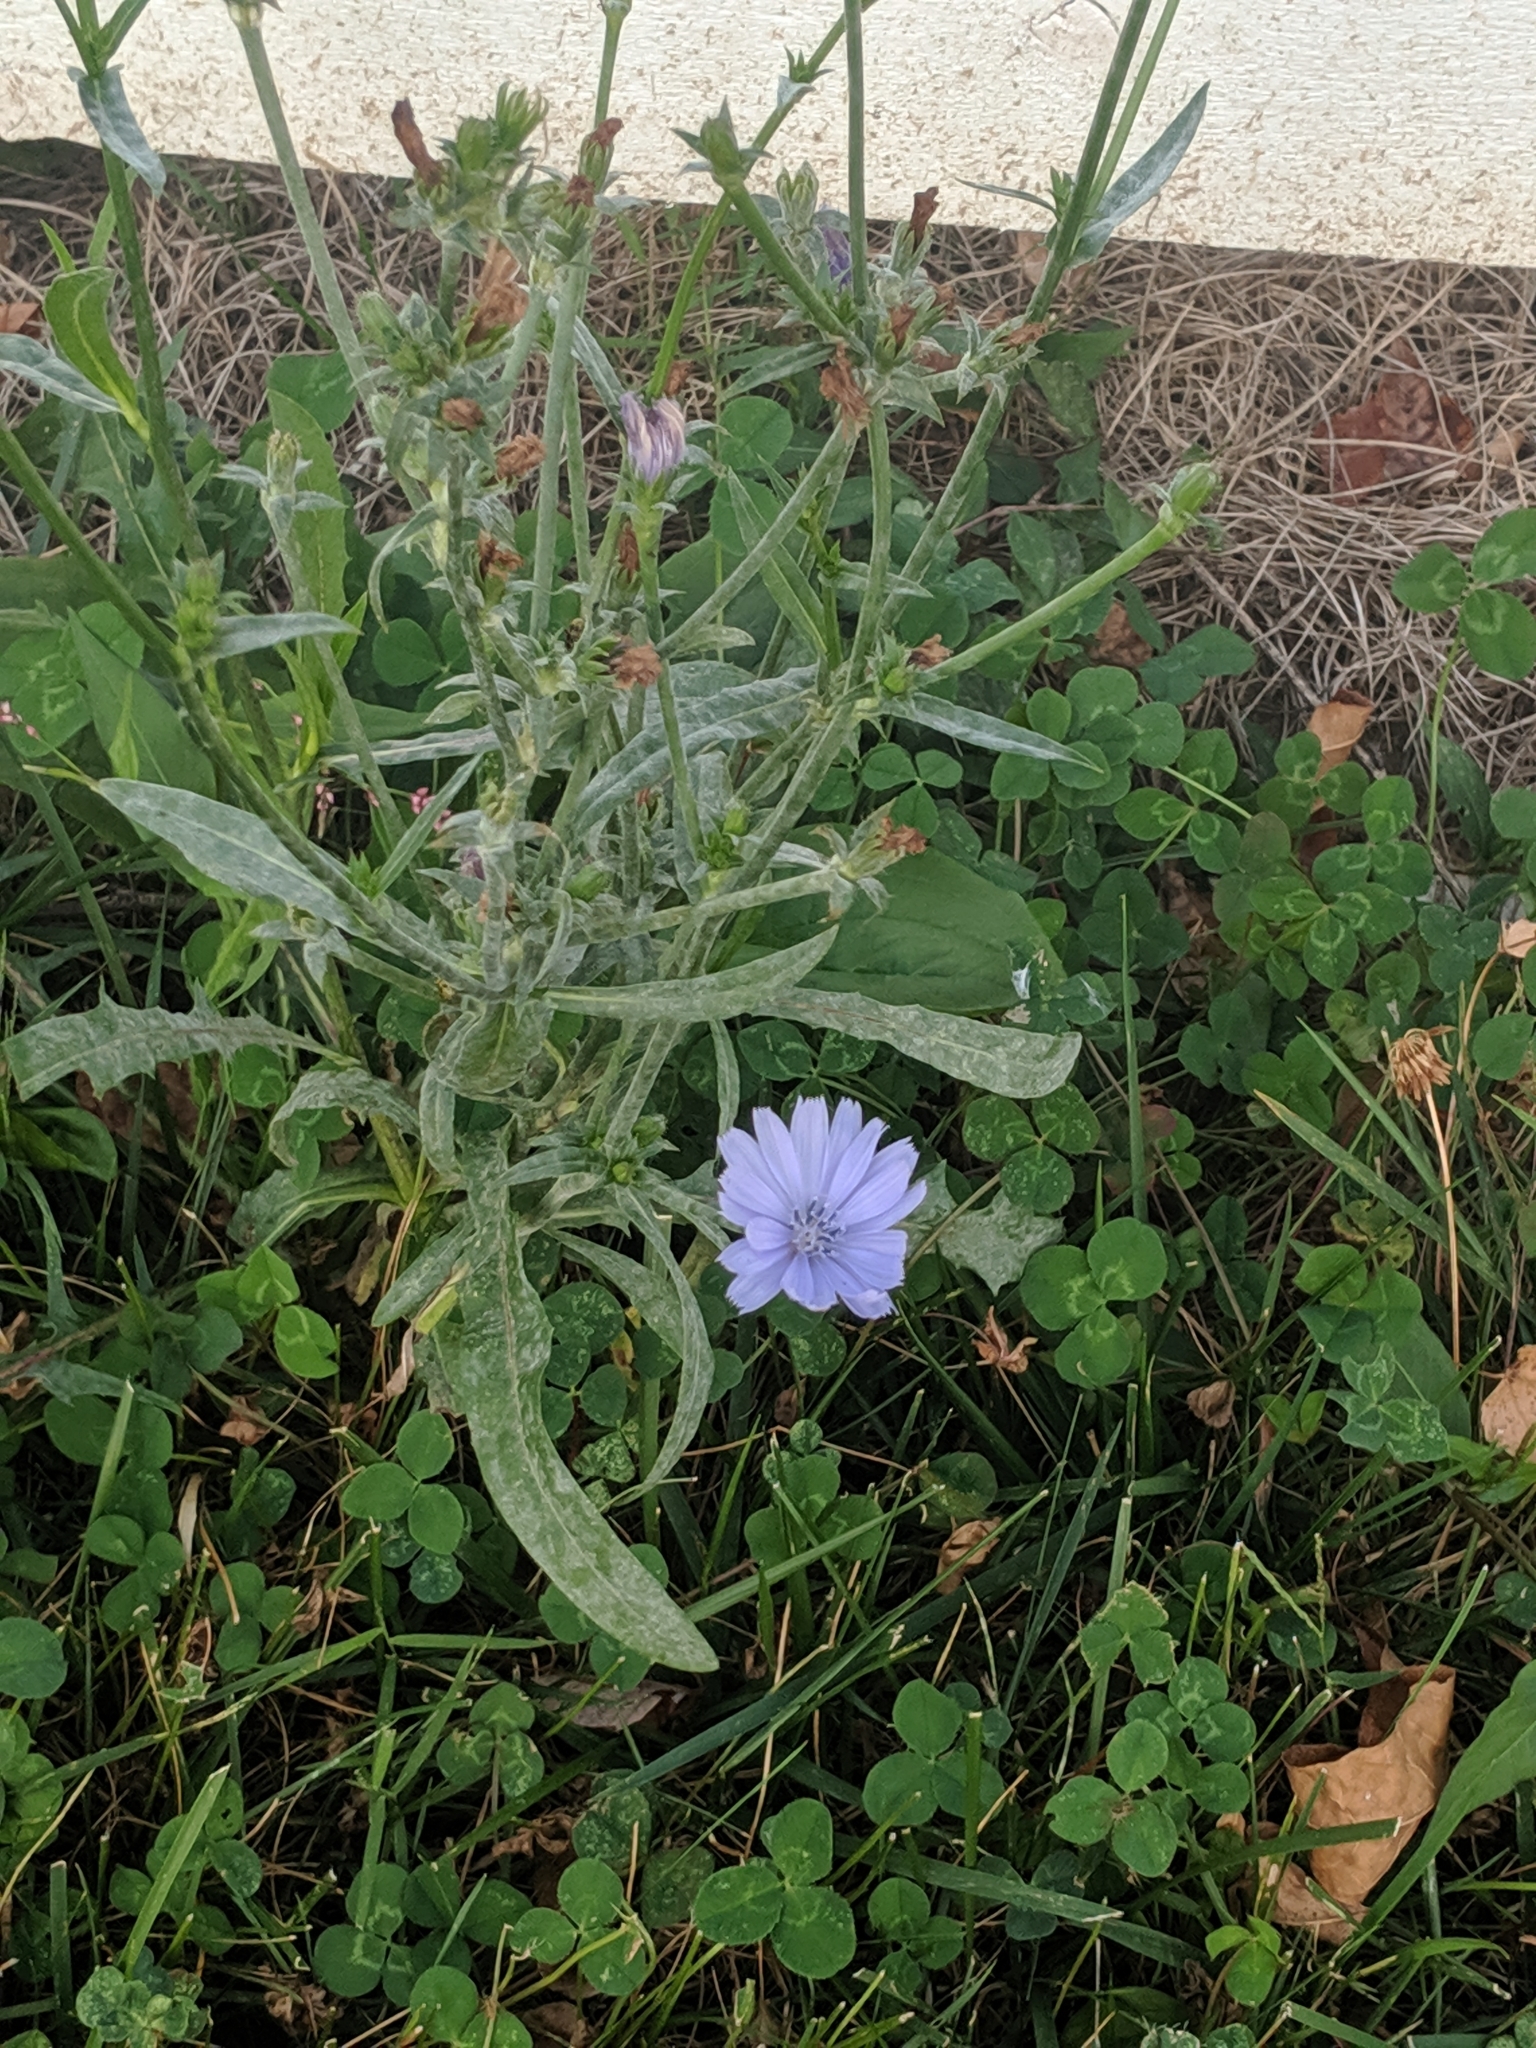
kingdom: Plantae
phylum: Tracheophyta
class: Magnoliopsida
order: Asterales
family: Asteraceae
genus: Cichorium
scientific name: Cichorium intybus
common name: Chicory
